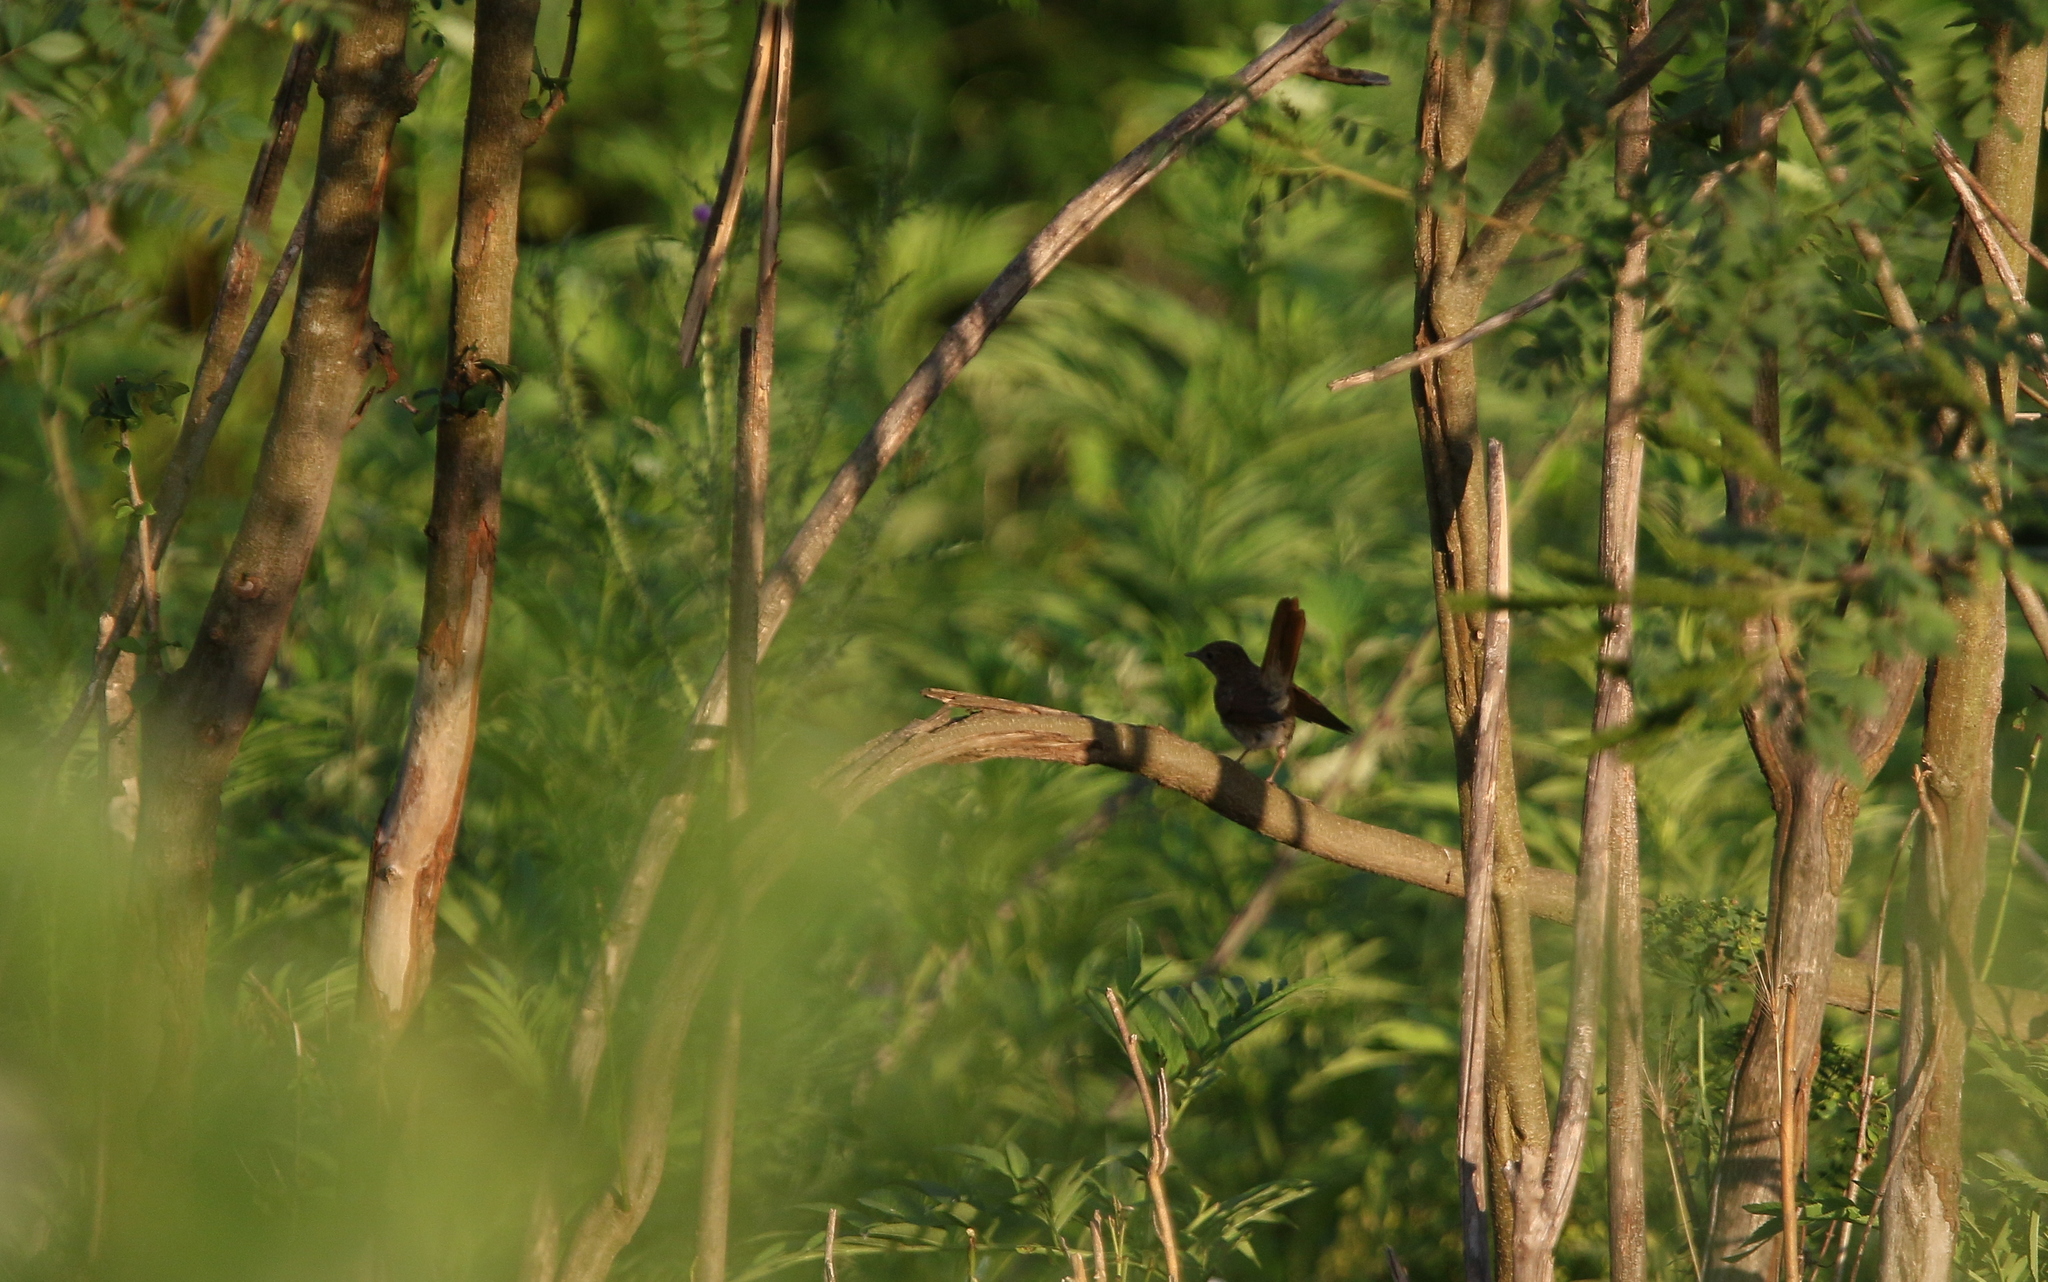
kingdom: Animalia
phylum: Chordata
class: Aves
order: Passeriformes
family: Muscicapidae
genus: Luscinia
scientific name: Luscinia megarhynchos
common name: Common nightingale
